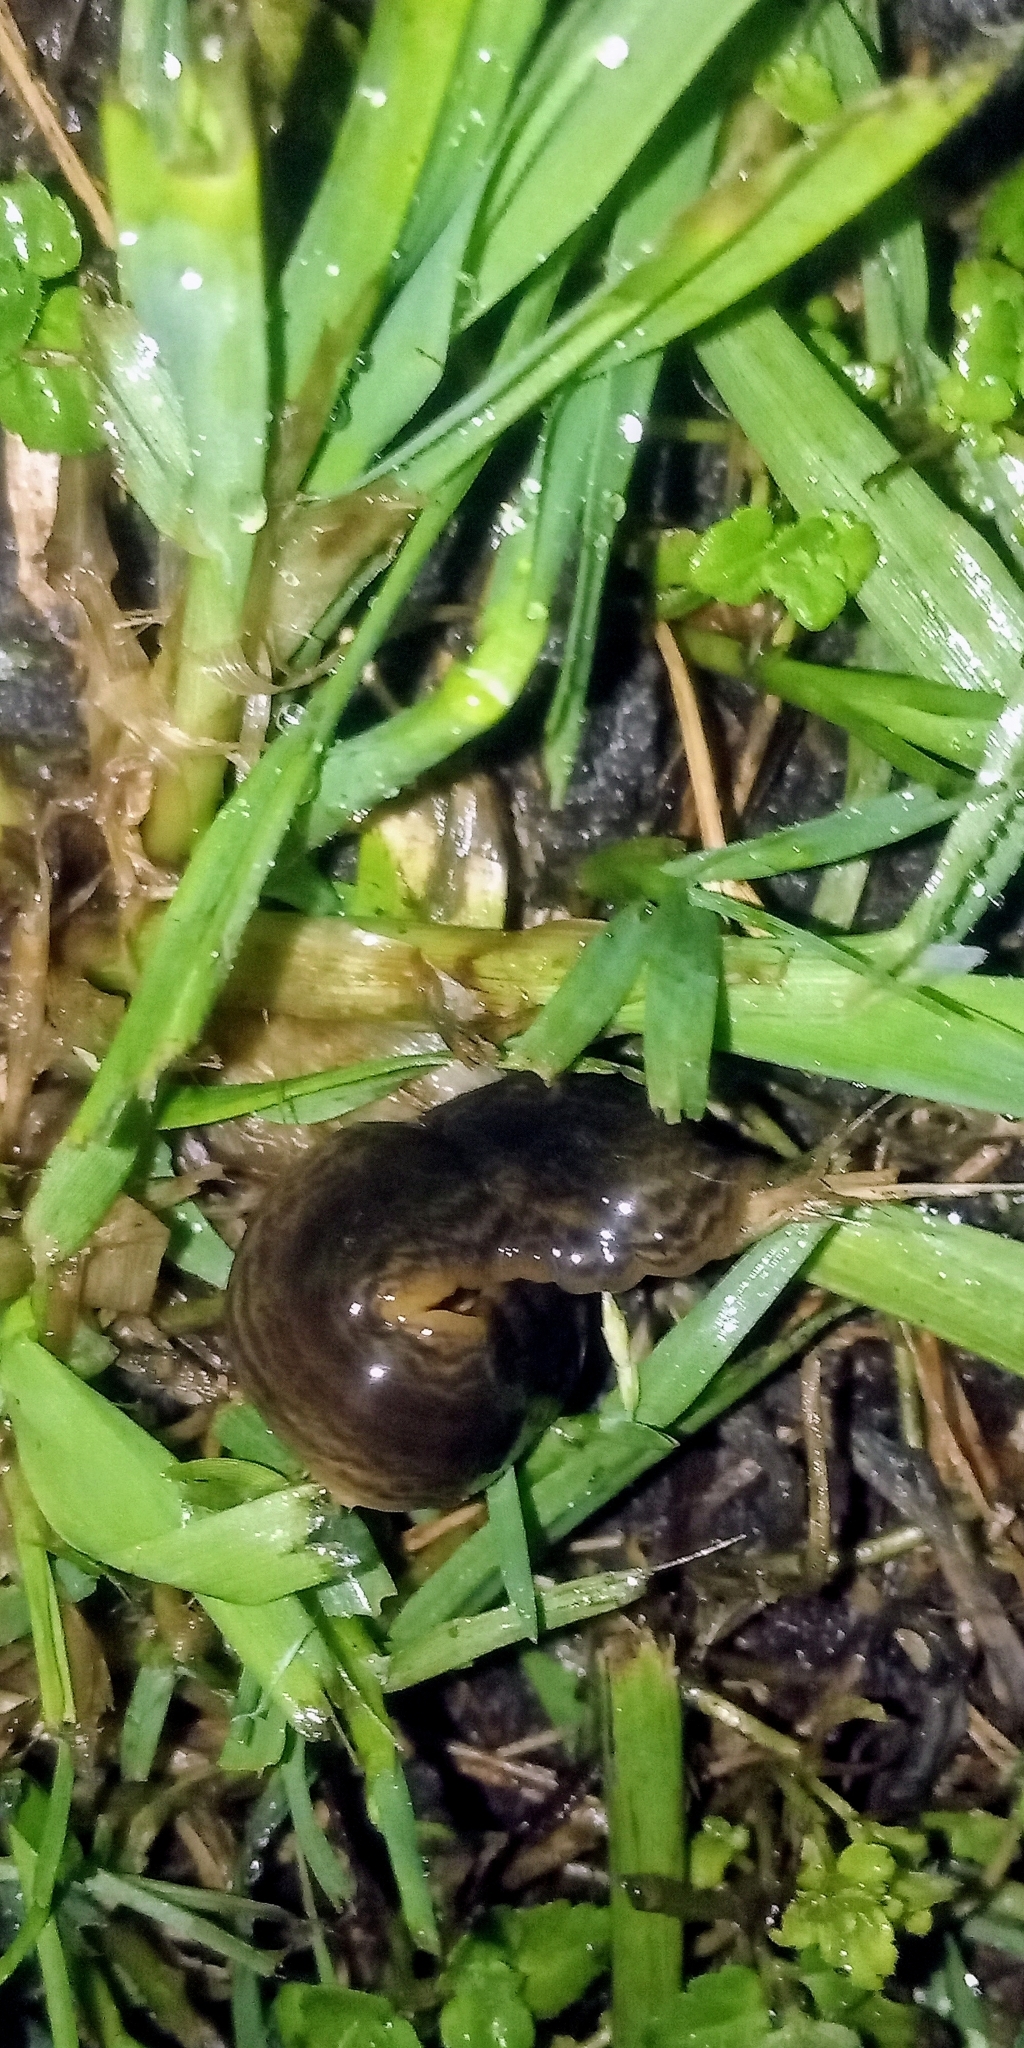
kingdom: Animalia
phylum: Platyhelminthes
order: Tricladida
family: Geoplanidae
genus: Obama
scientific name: Obama nungara
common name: Obama flatworm
